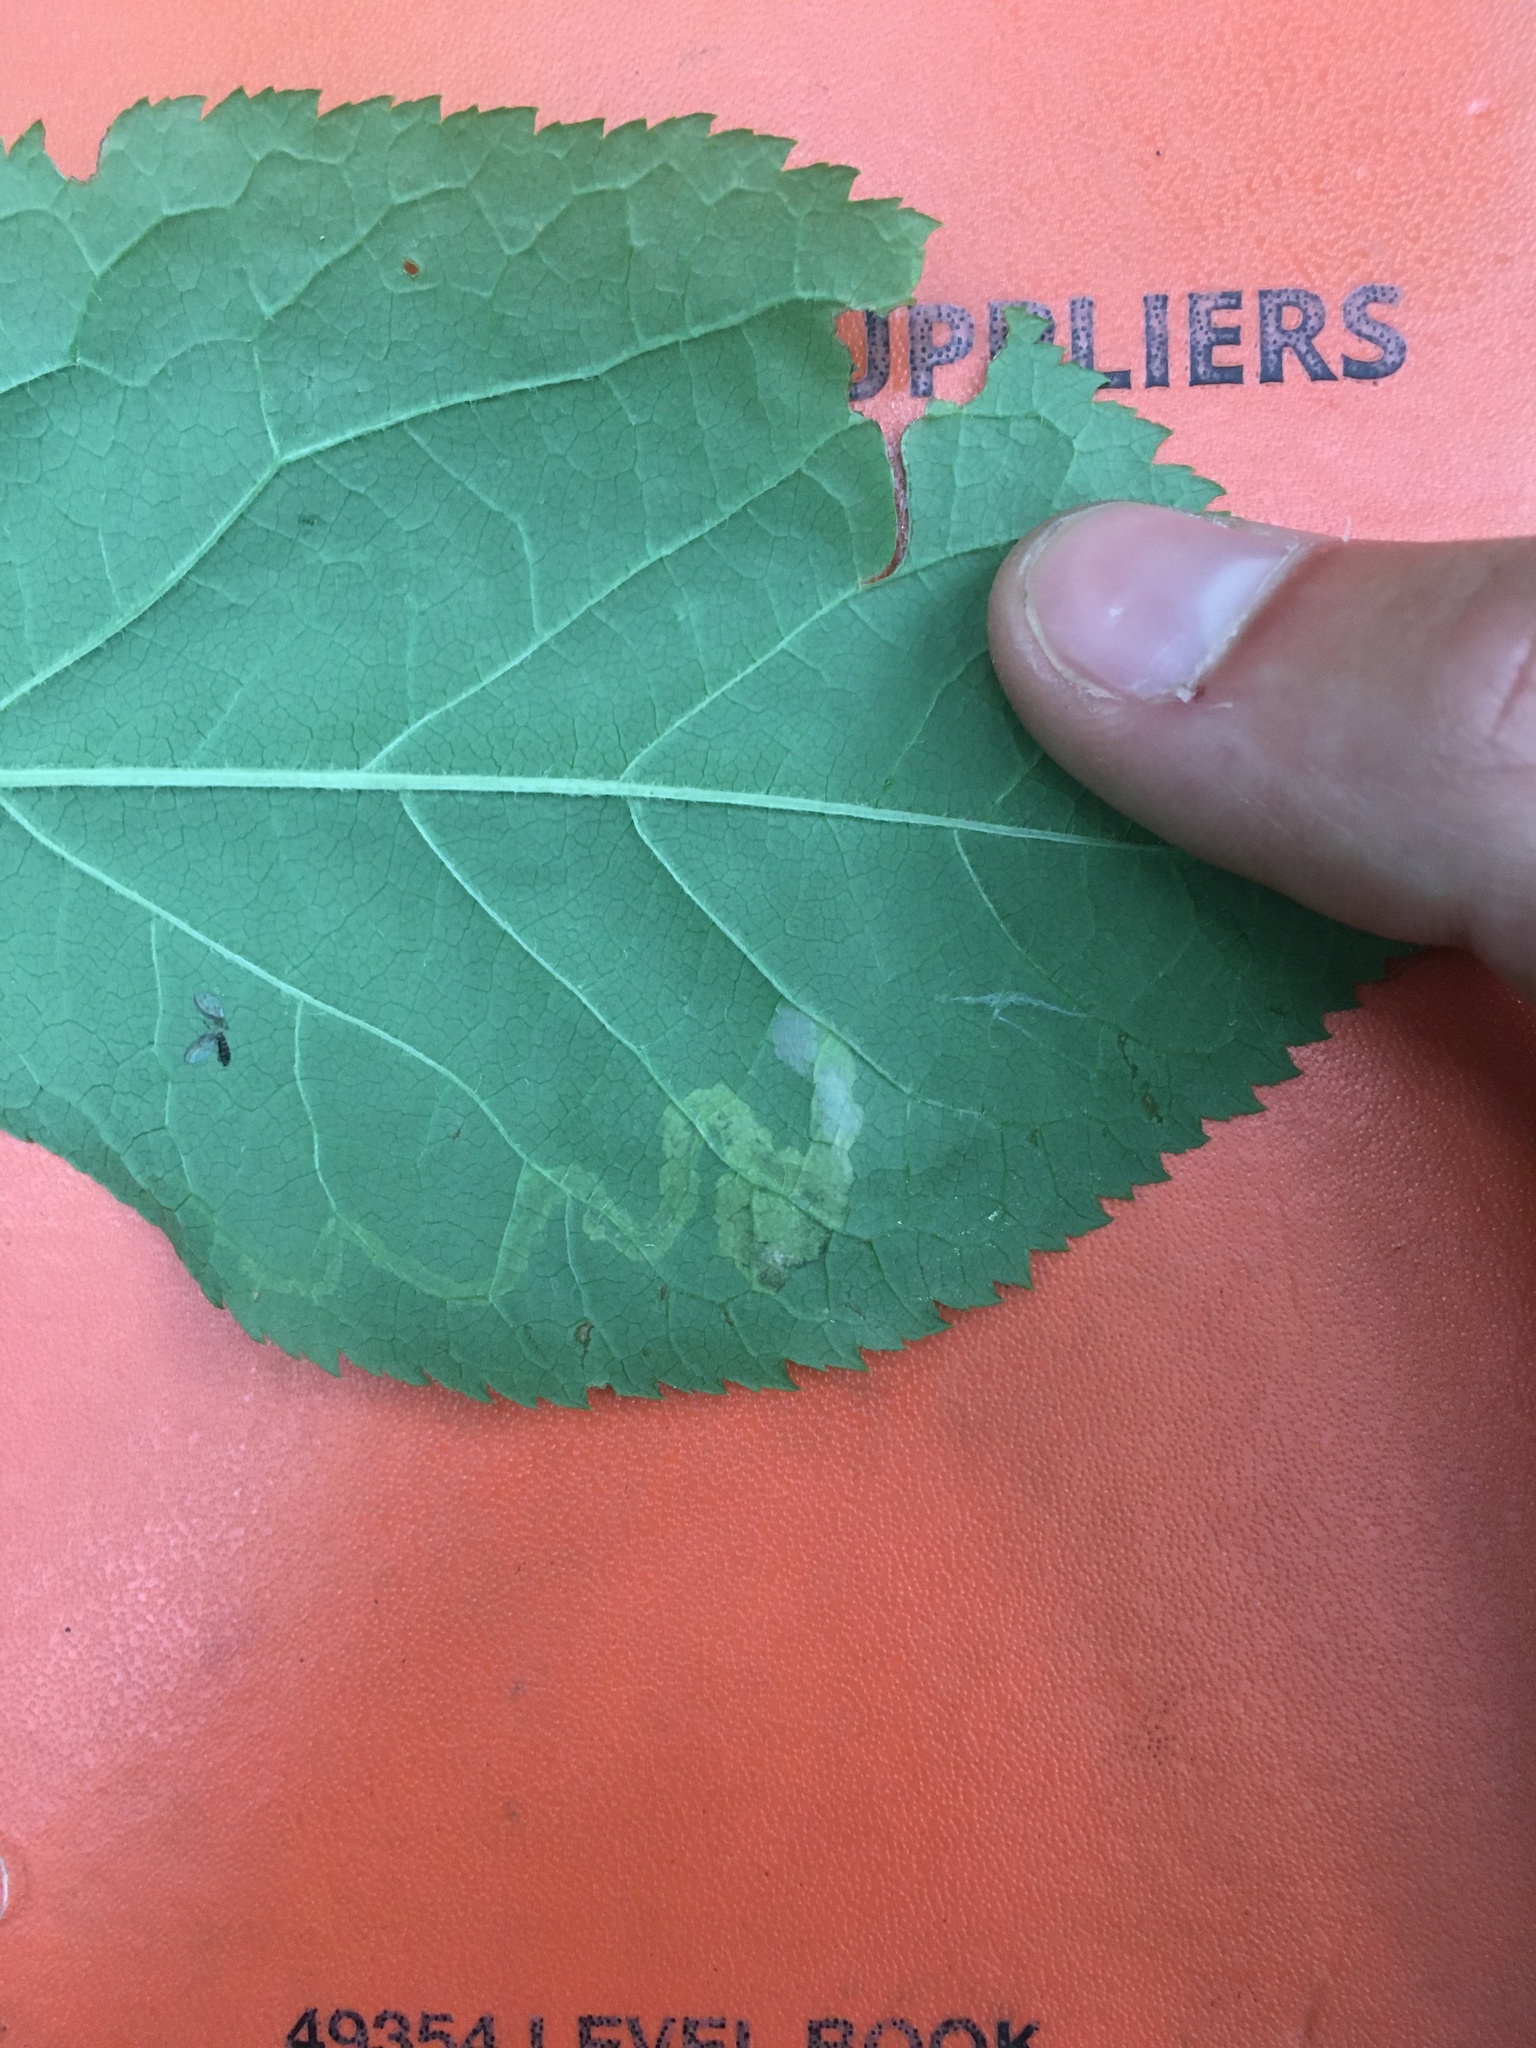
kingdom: Animalia
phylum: Arthropoda
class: Insecta
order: Diptera
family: Agromyzidae
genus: Phytomyza
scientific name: Phytomyza aralivora
